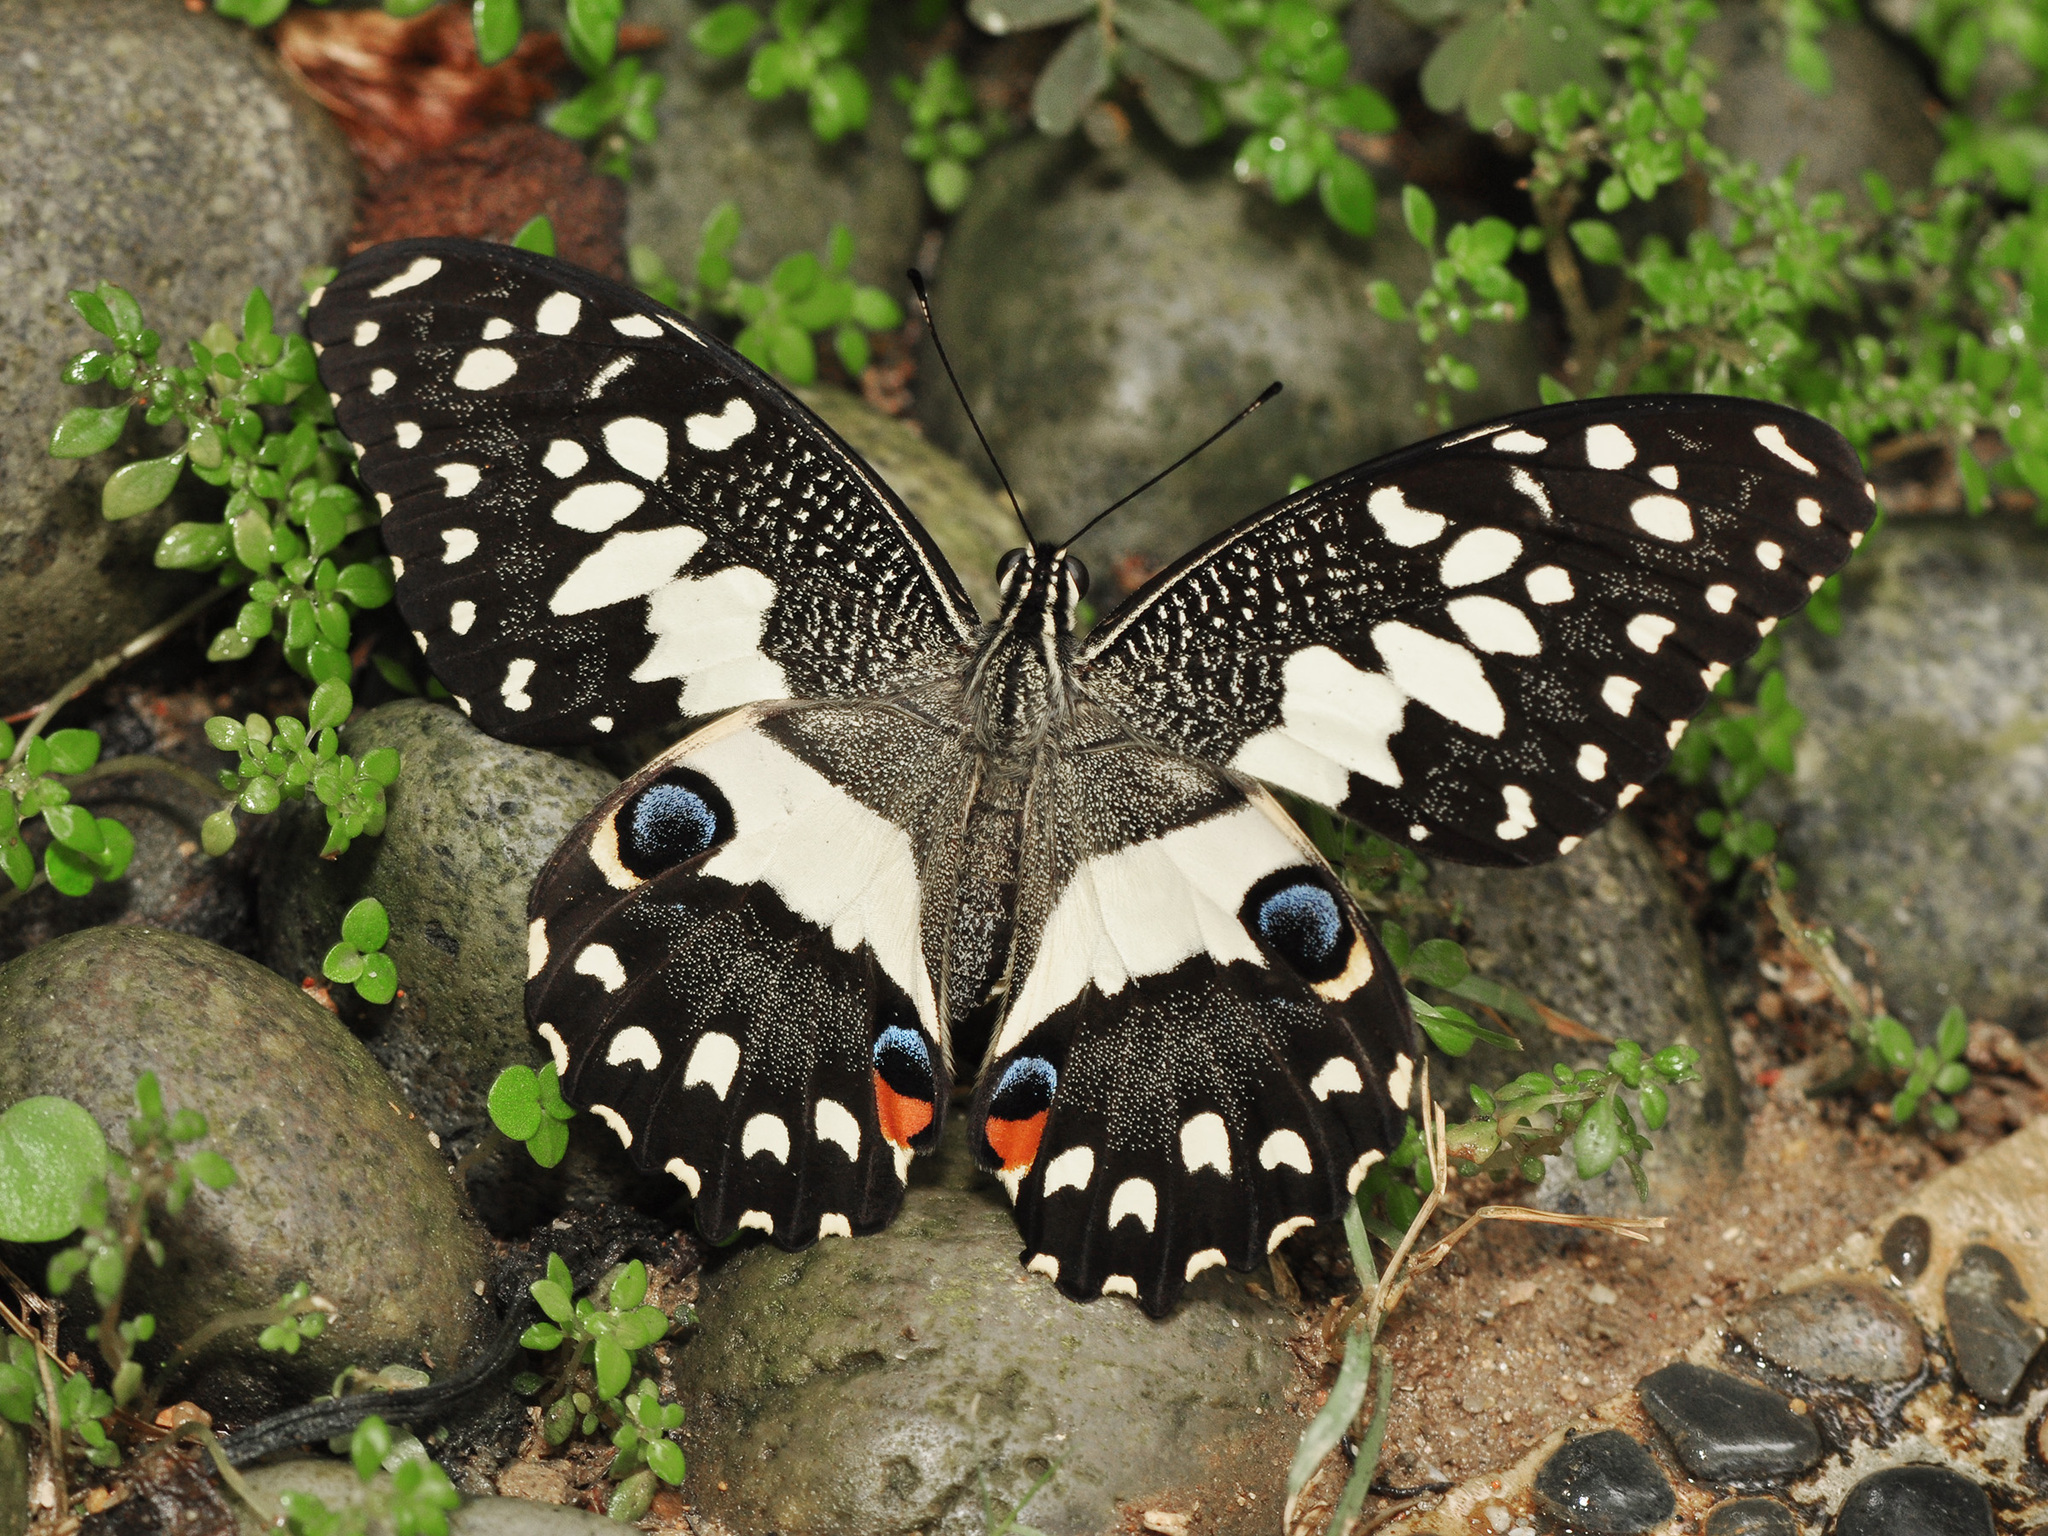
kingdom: Animalia
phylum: Arthropoda
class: Insecta
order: Lepidoptera
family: Papilionidae
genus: Papilio
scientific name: Papilio demoleus
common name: Lime butterfly
